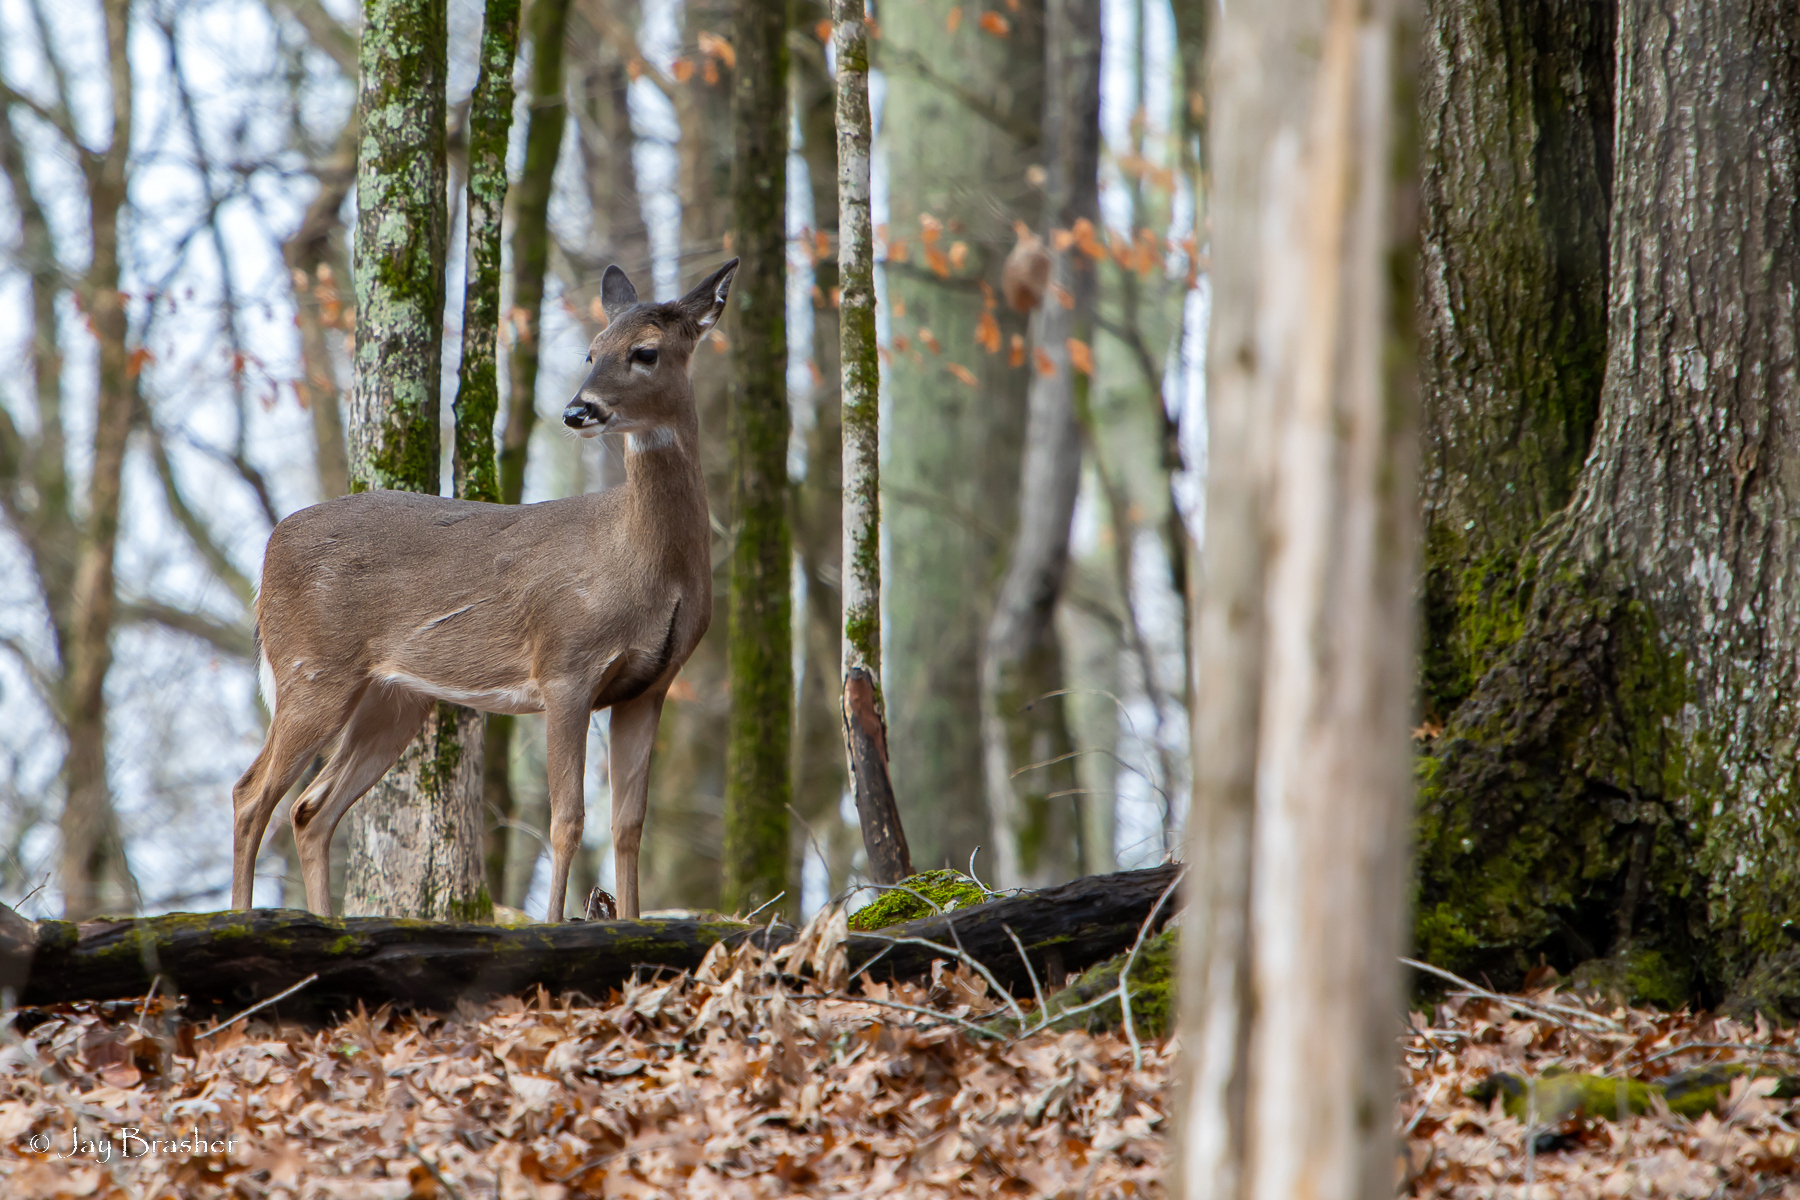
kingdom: Animalia
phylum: Chordata
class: Mammalia
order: Artiodactyla
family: Cervidae
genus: Odocoileus
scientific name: Odocoileus virginianus
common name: White-tailed deer
